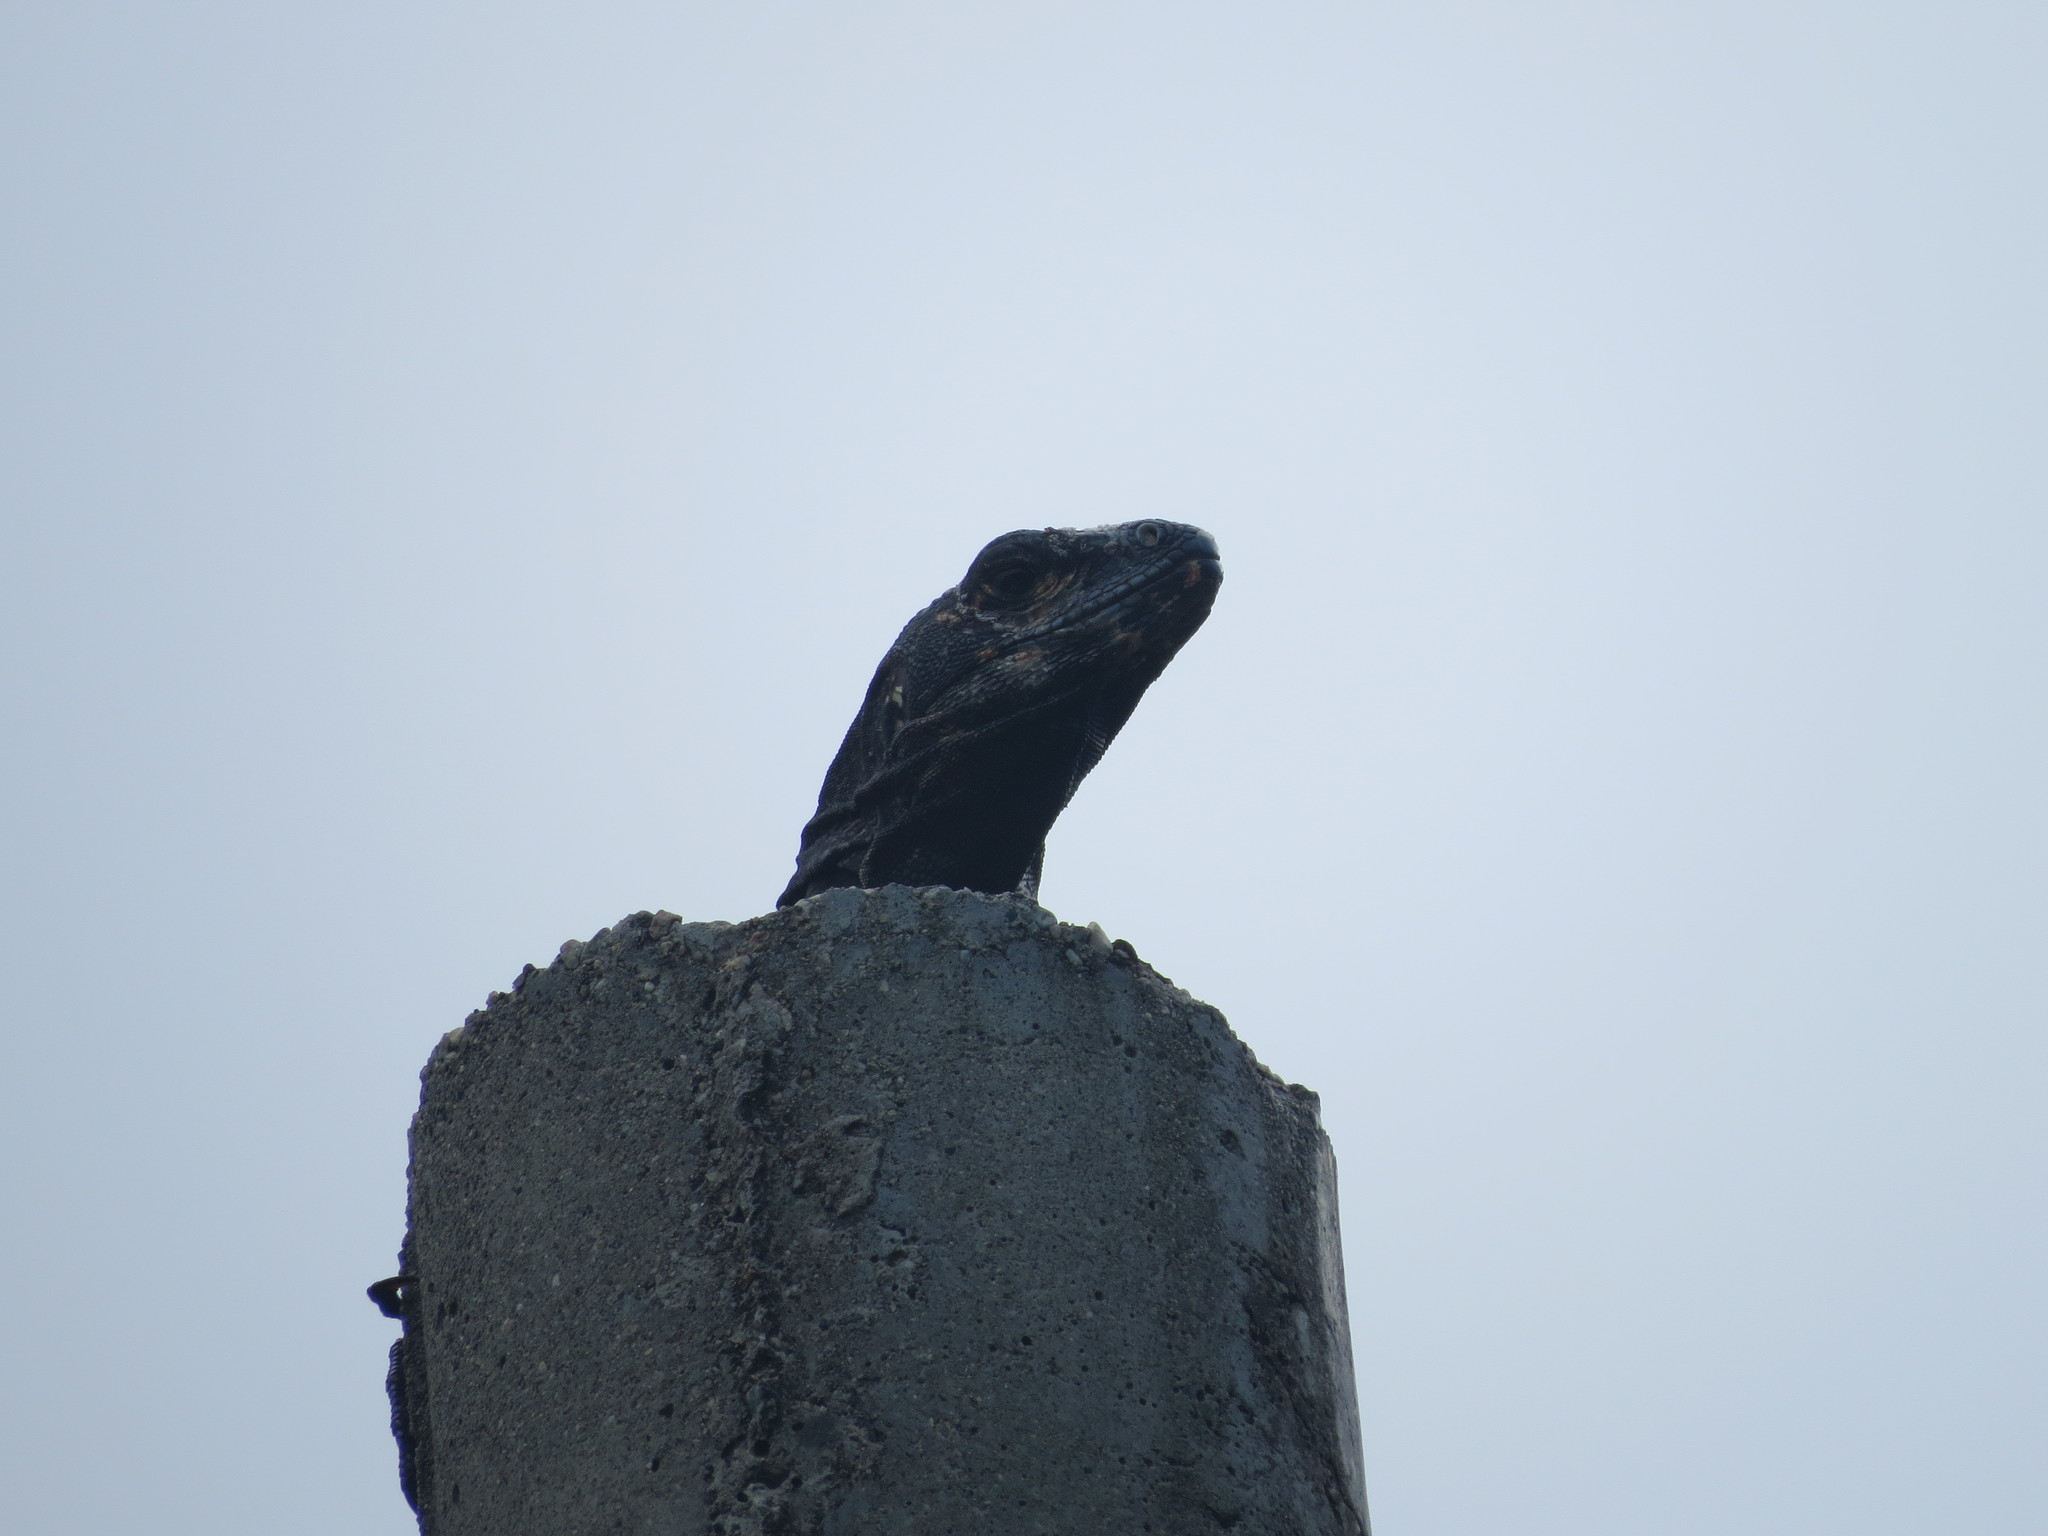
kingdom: Animalia
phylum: Chordata
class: Squamata
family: Iguanidae
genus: Ctenosaura
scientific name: Ctenosaura similis
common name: Black spiny-tailed iguana
